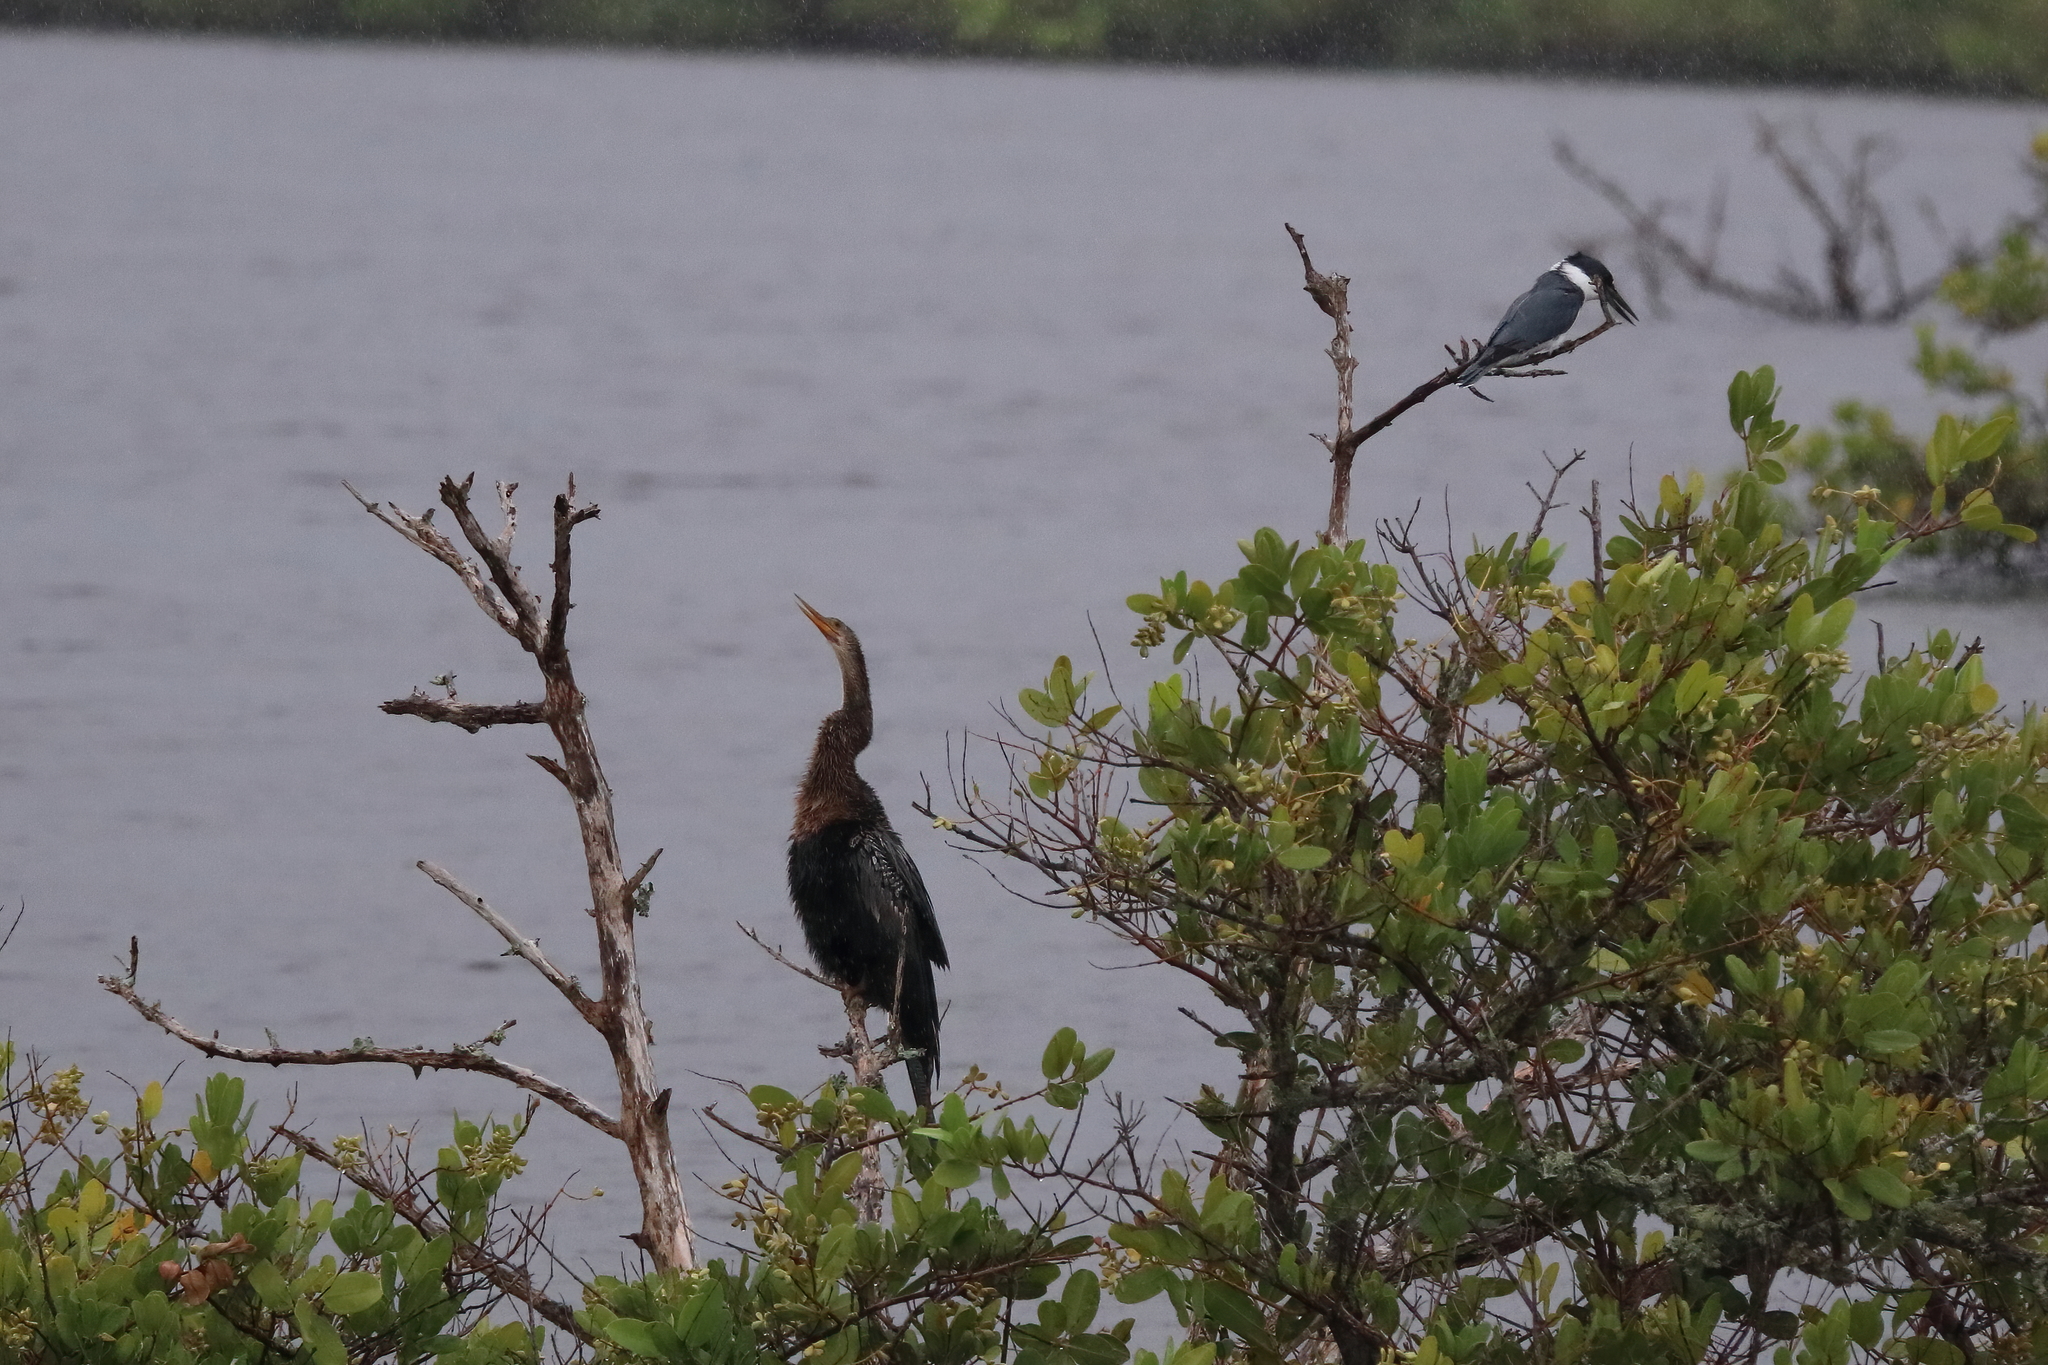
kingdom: Animalia
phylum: Chordata
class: Aves
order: Suliformes
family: Anhingidae
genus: Anhinga
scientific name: Anhinga anhinga
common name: Anhinga
